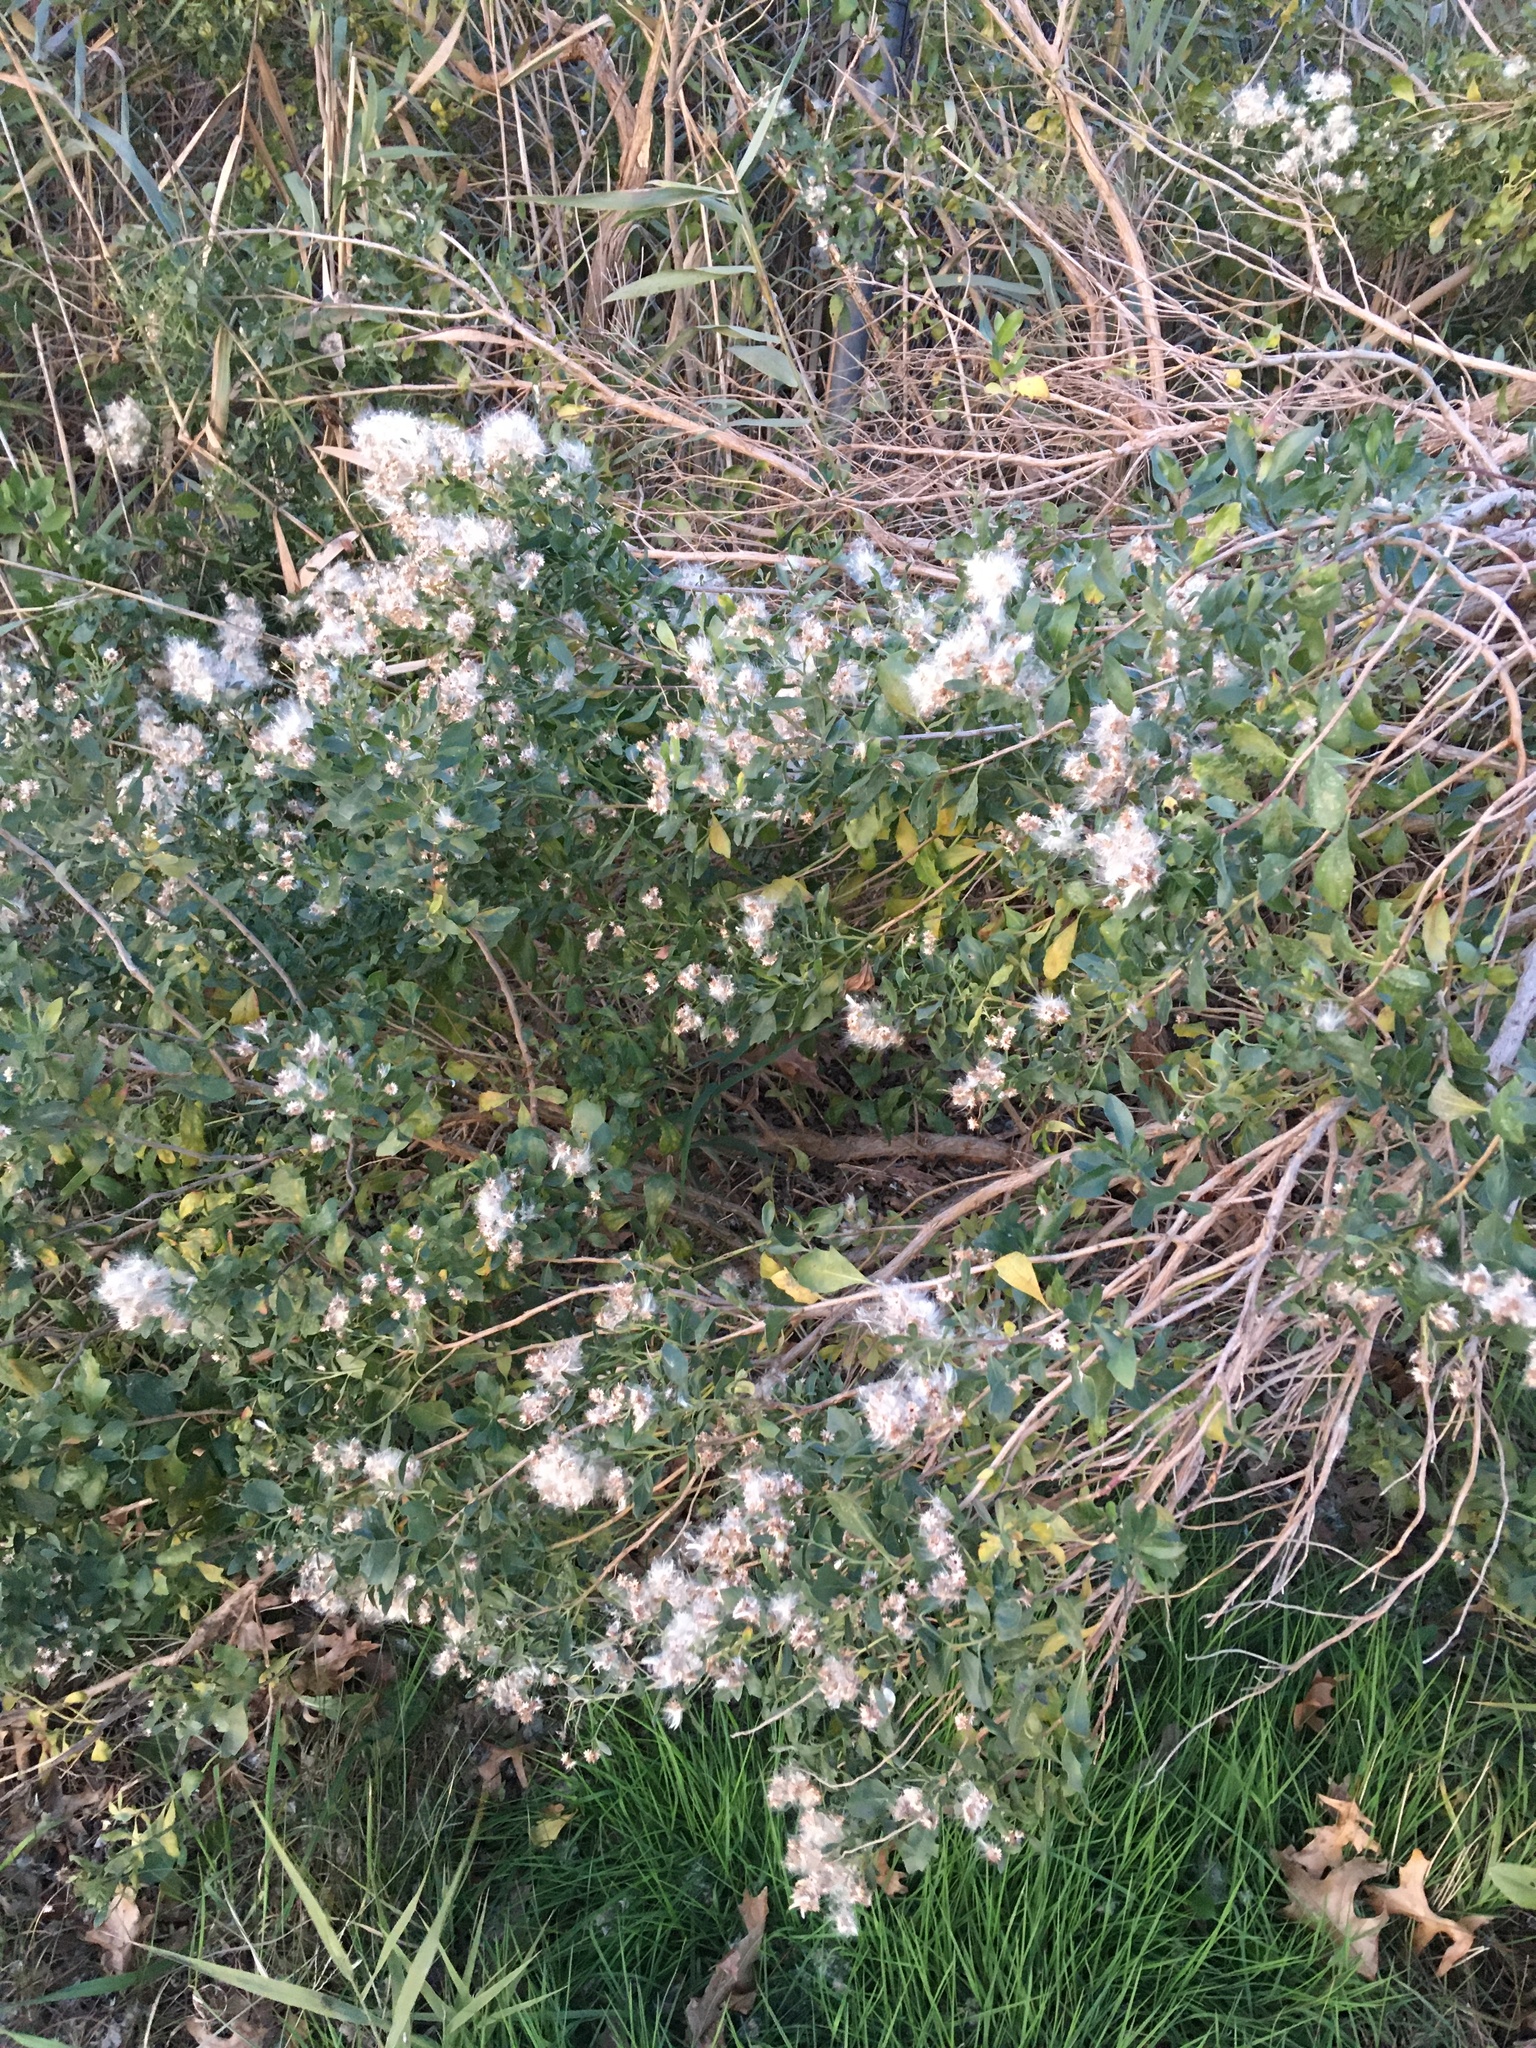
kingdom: Plantae
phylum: Tracheophyta
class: Magnoliopsida
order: Asterales
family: Asteraceae
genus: Baccharis
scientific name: Baccharis halimifolia
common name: Eastern baccharis
